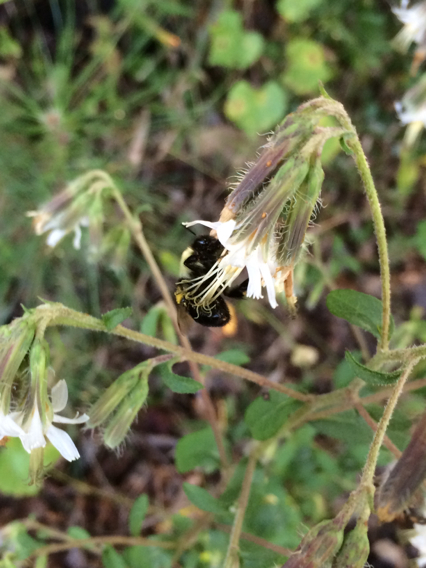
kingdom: Animalia
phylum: Arthropoda
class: Insecta
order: Hymenoptera
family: Apidae
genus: Bombus
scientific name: Bombus impatiens
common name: Common eastern bumble bee
